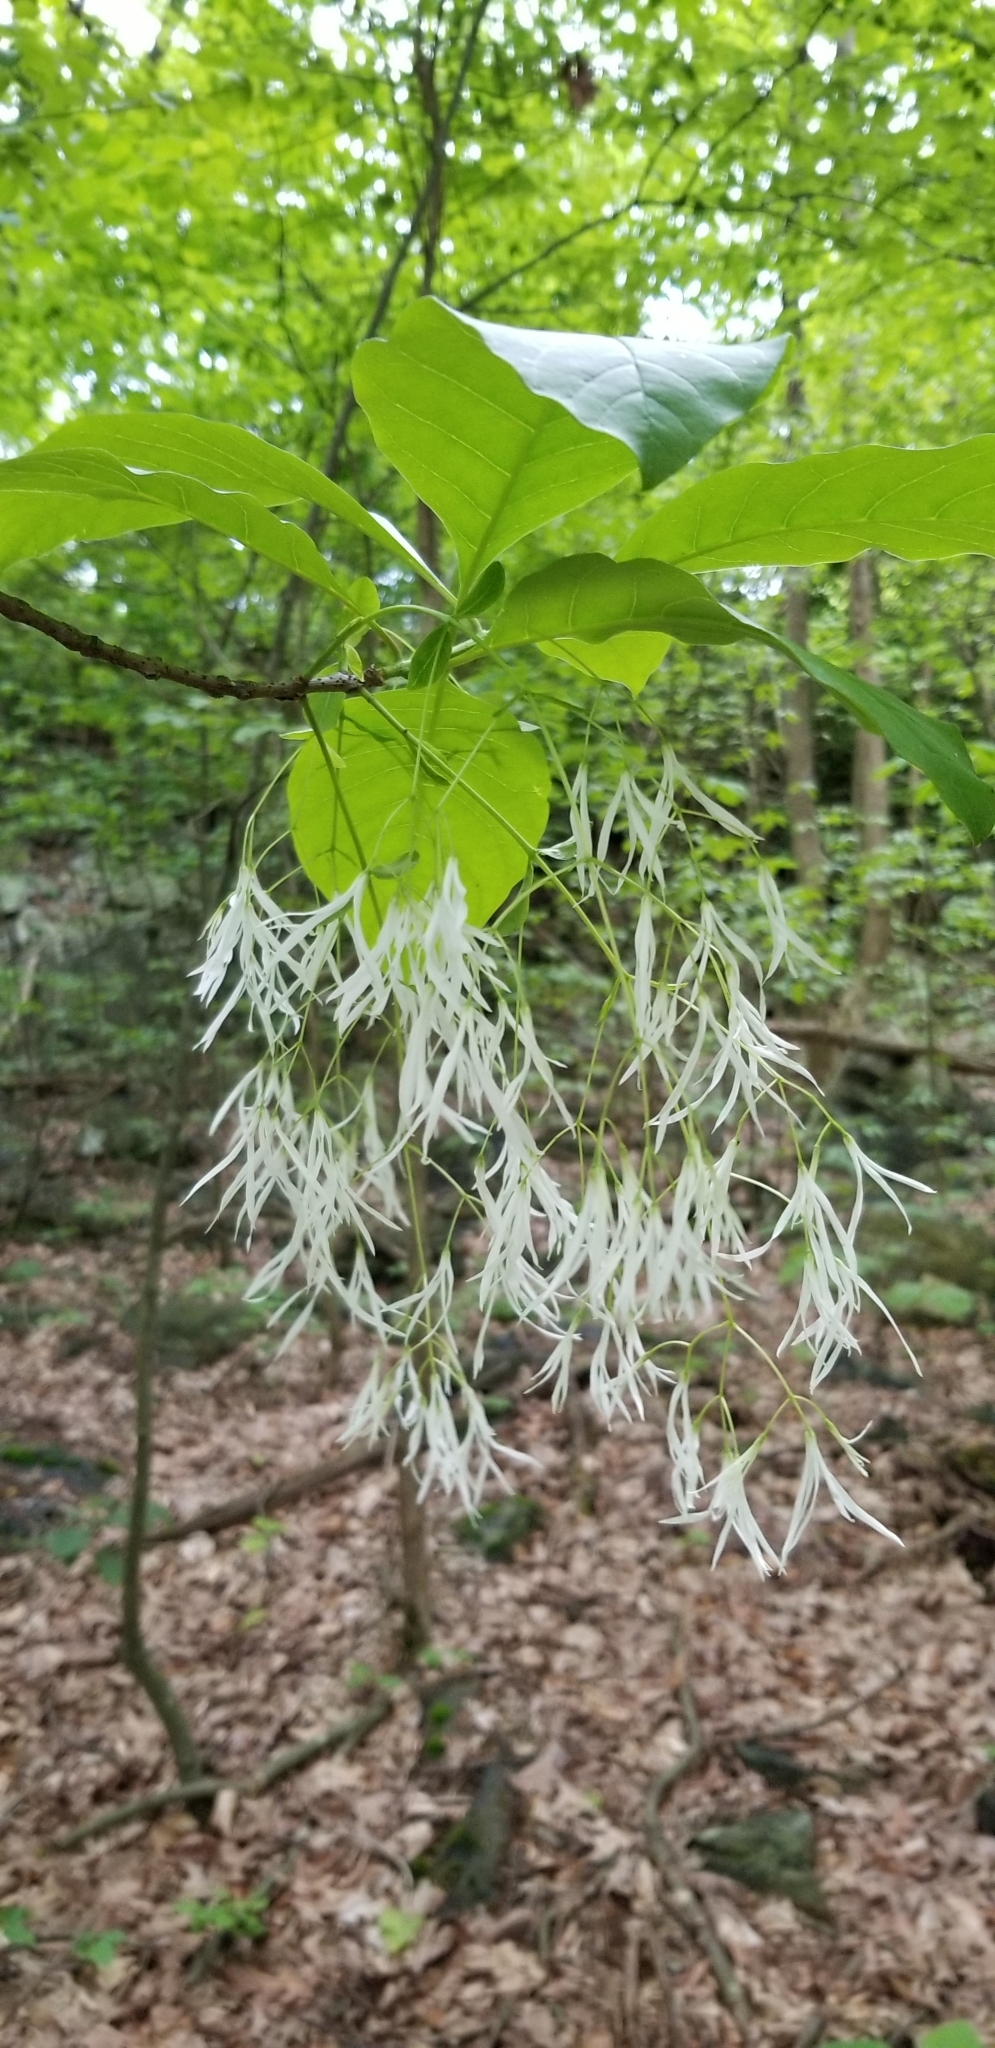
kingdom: Plantae
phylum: Tracheophyta
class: Magnoliopsida
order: Lamiales
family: Oleaceae
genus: Chionanthus
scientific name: Chionanthus virginicus
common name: American fringetree
